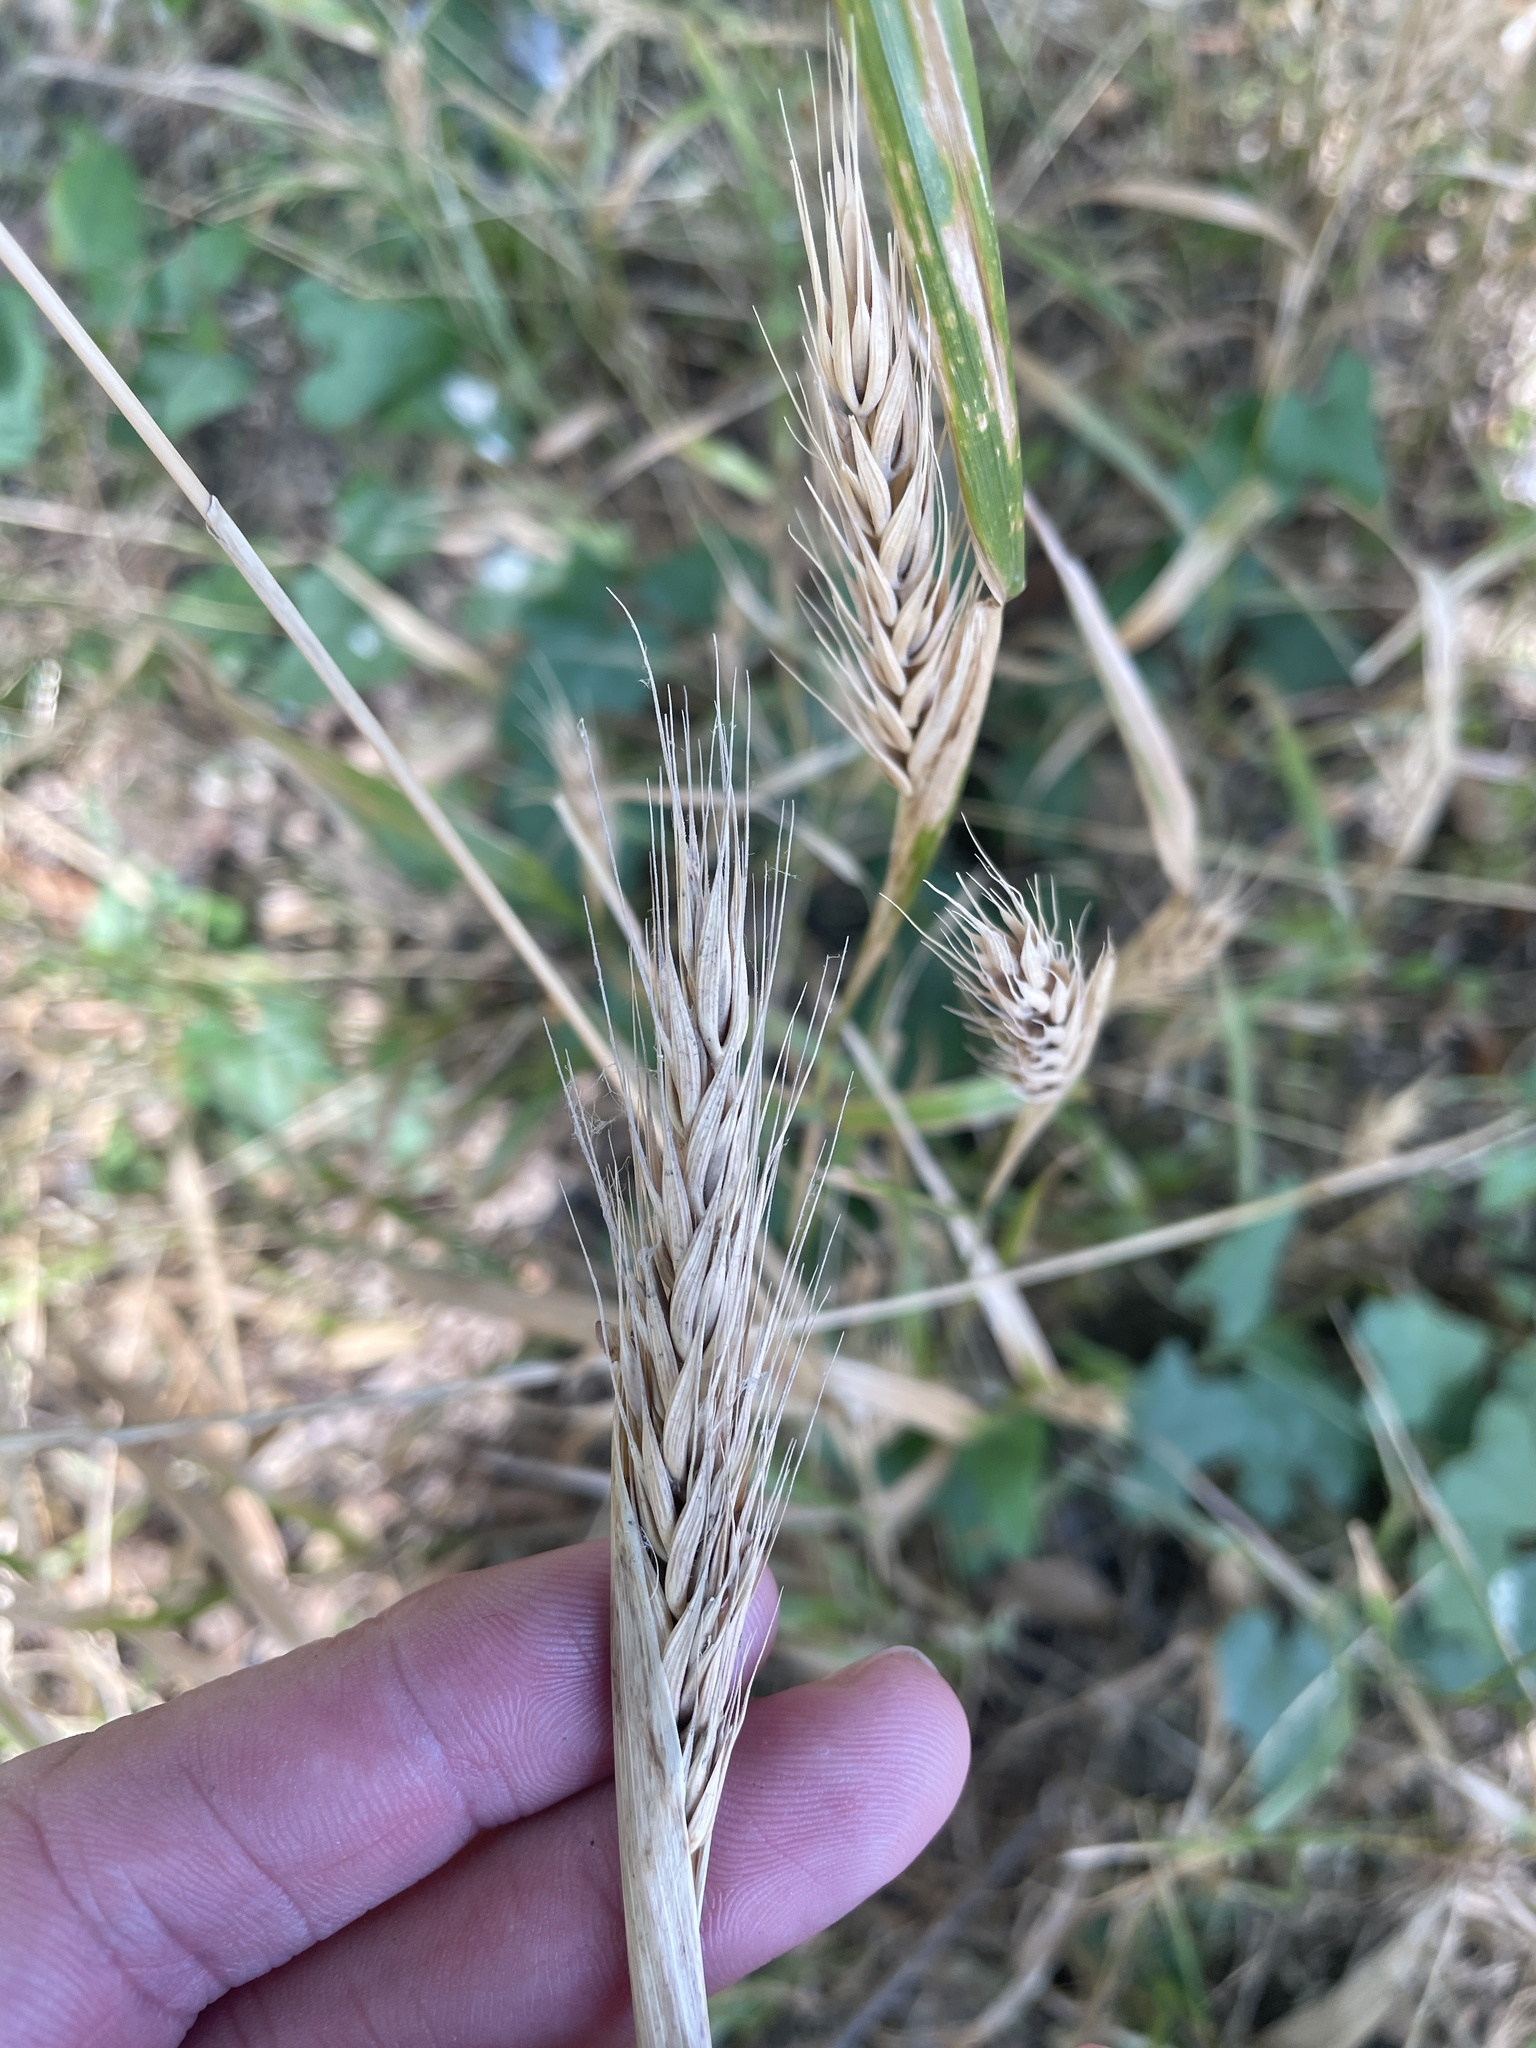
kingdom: Plantae
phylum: Tracheophyta
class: Liliopsida
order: Poales
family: Poaceae
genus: Elymus
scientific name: Elymus virginicus
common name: Common eastern wildrye
